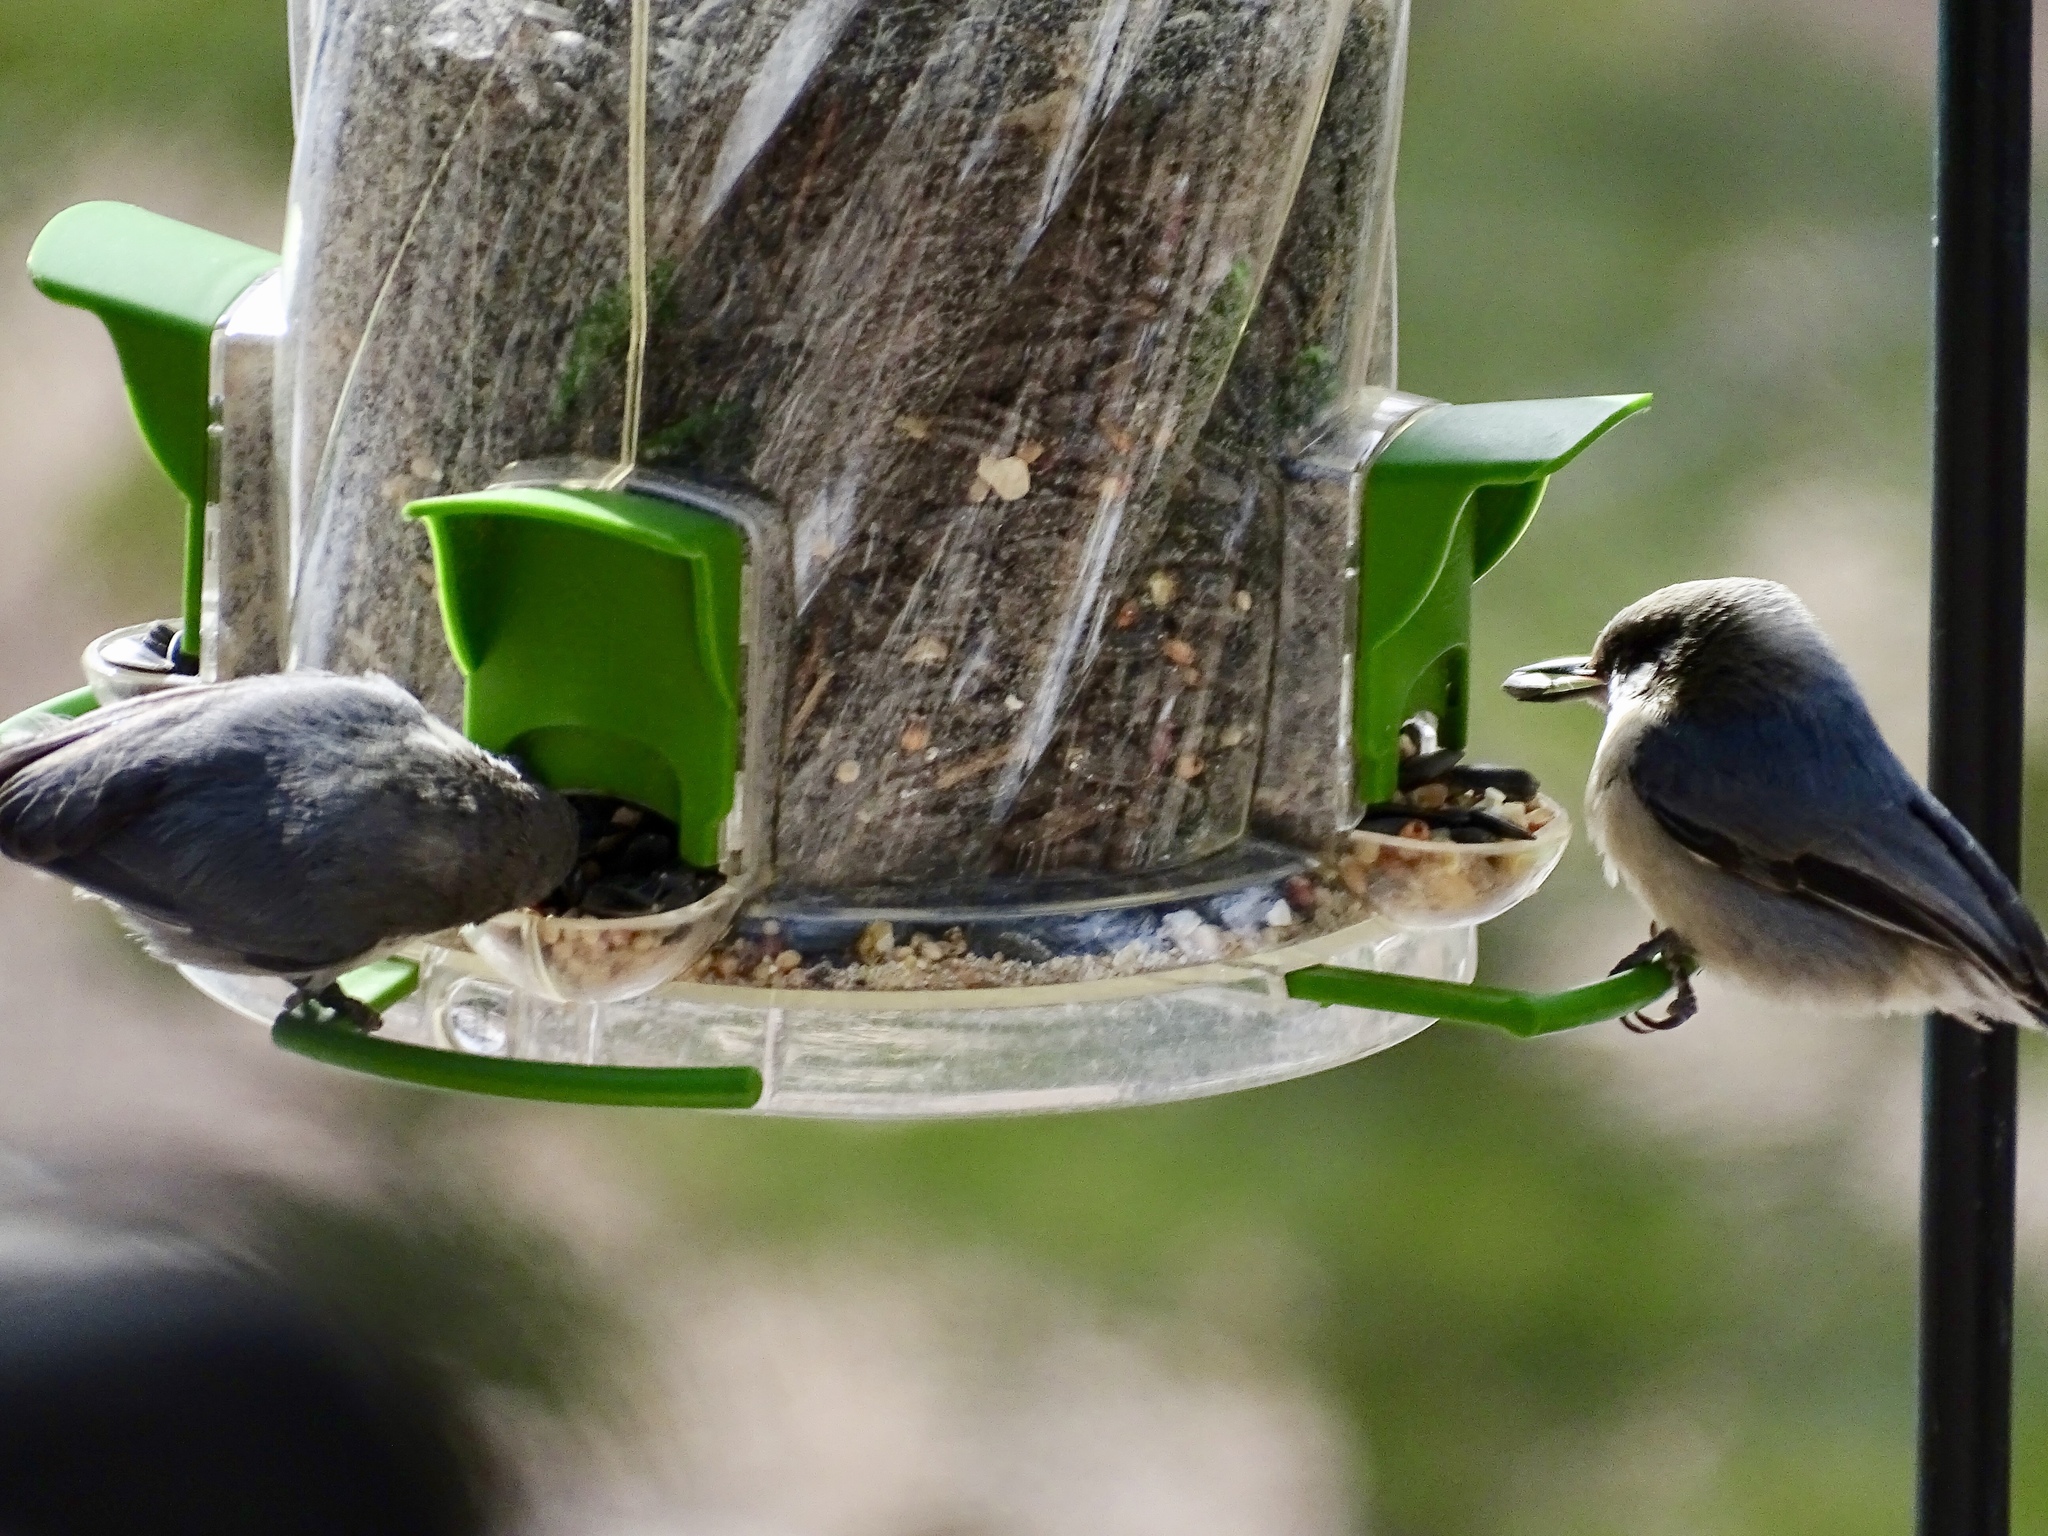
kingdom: Animalia
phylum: Chordata
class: Aves
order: Passeriformes
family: Sittidae
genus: Sitta
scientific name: Sitta pygmaea
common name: Pygmy nuthatch
